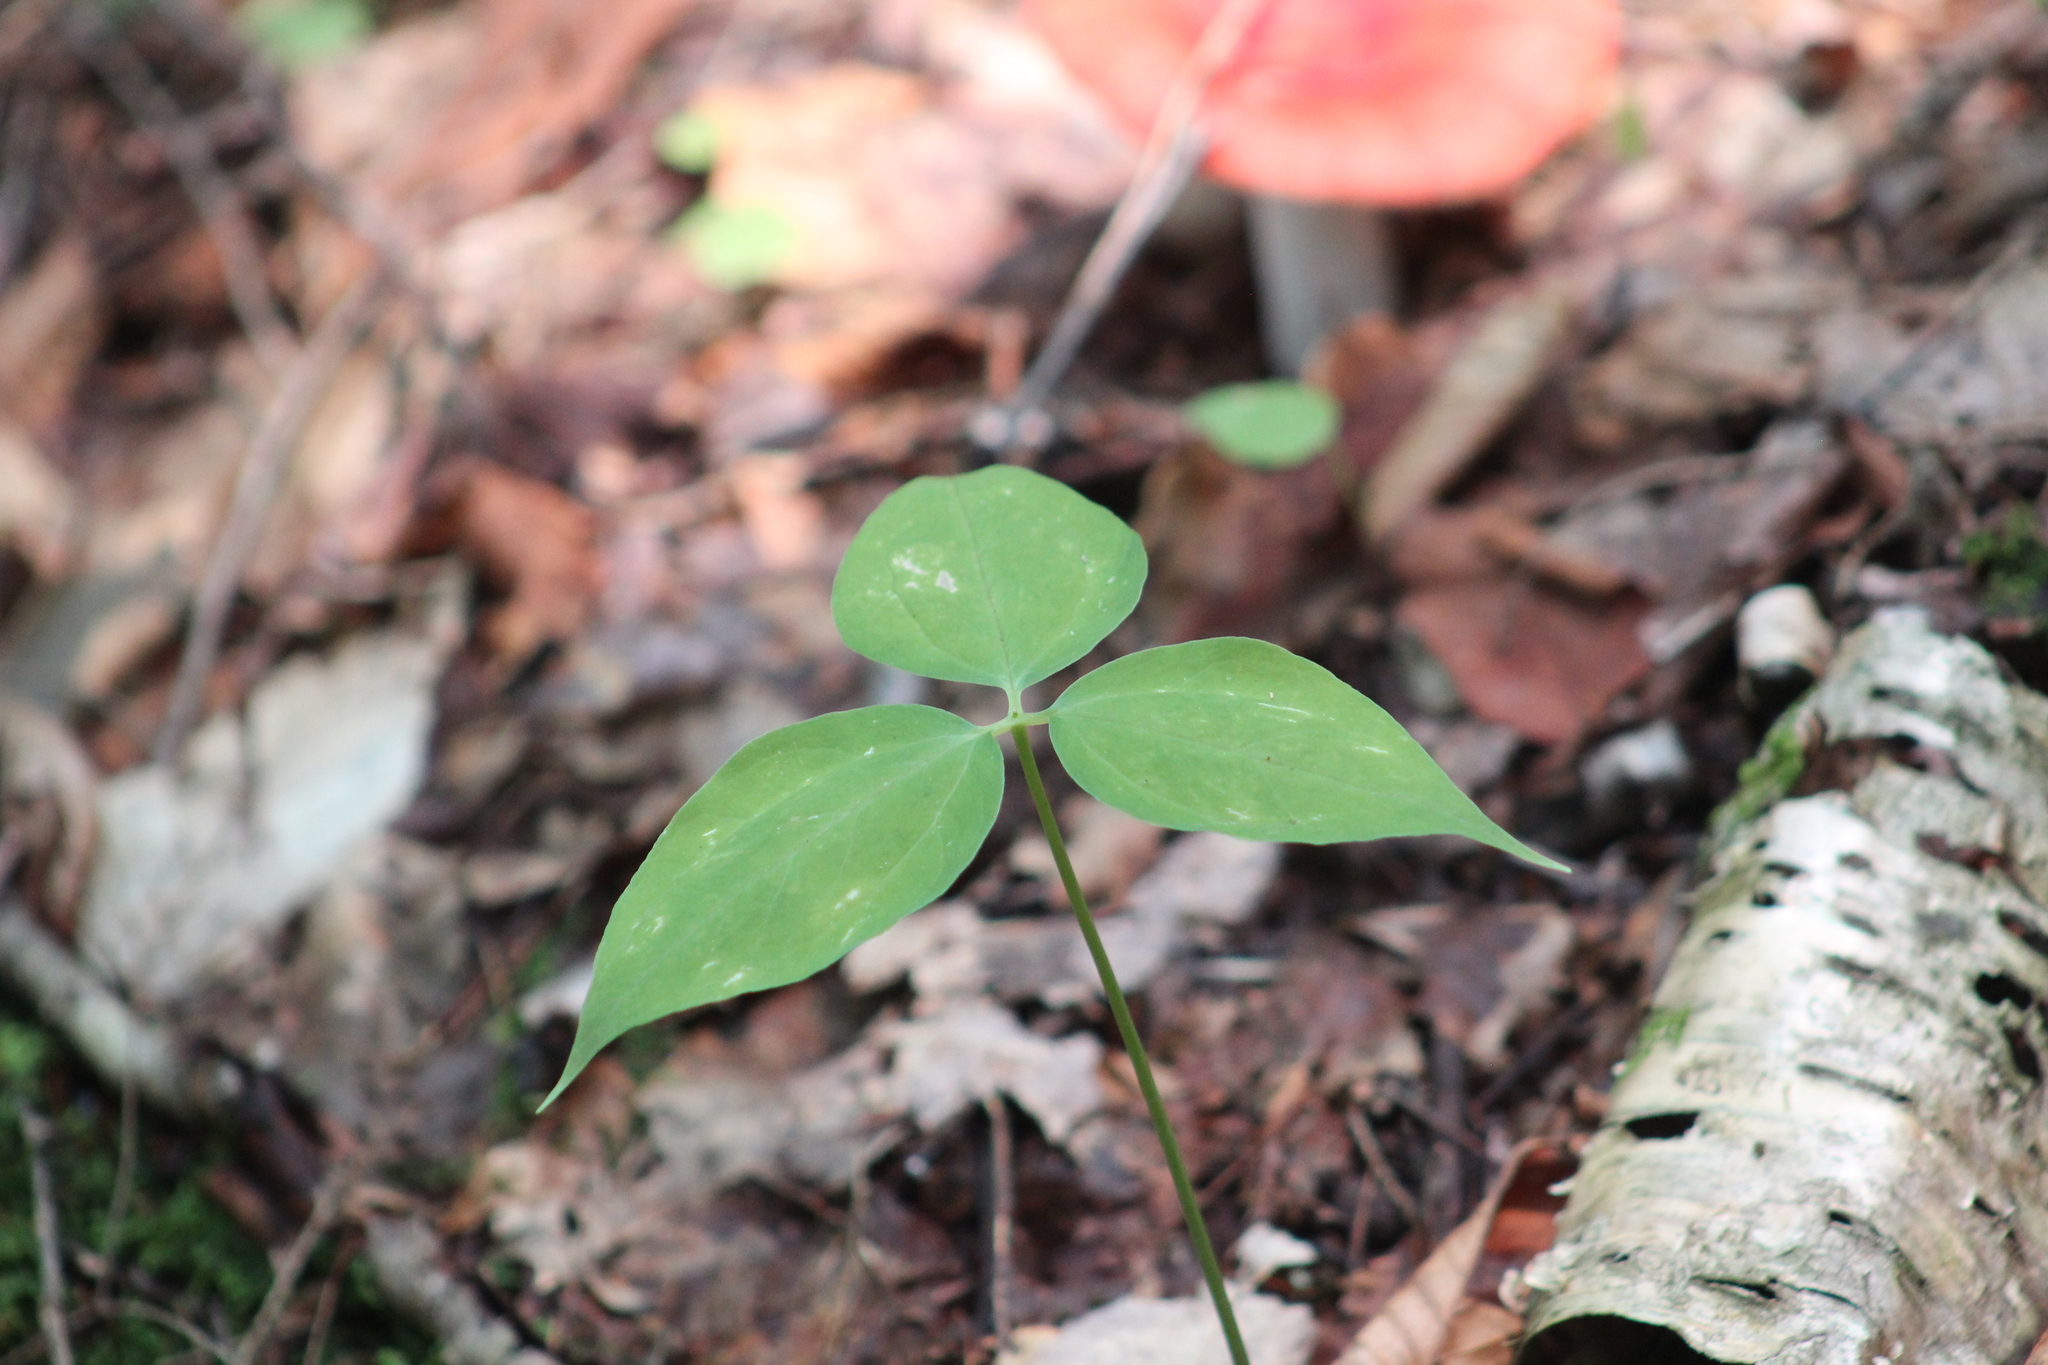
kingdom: Plantae
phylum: Tracheophyta
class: Liliopsida
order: Liliales
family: Melanthiaceae
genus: Trillium
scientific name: Trillium undulatum
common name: Paint trillium
